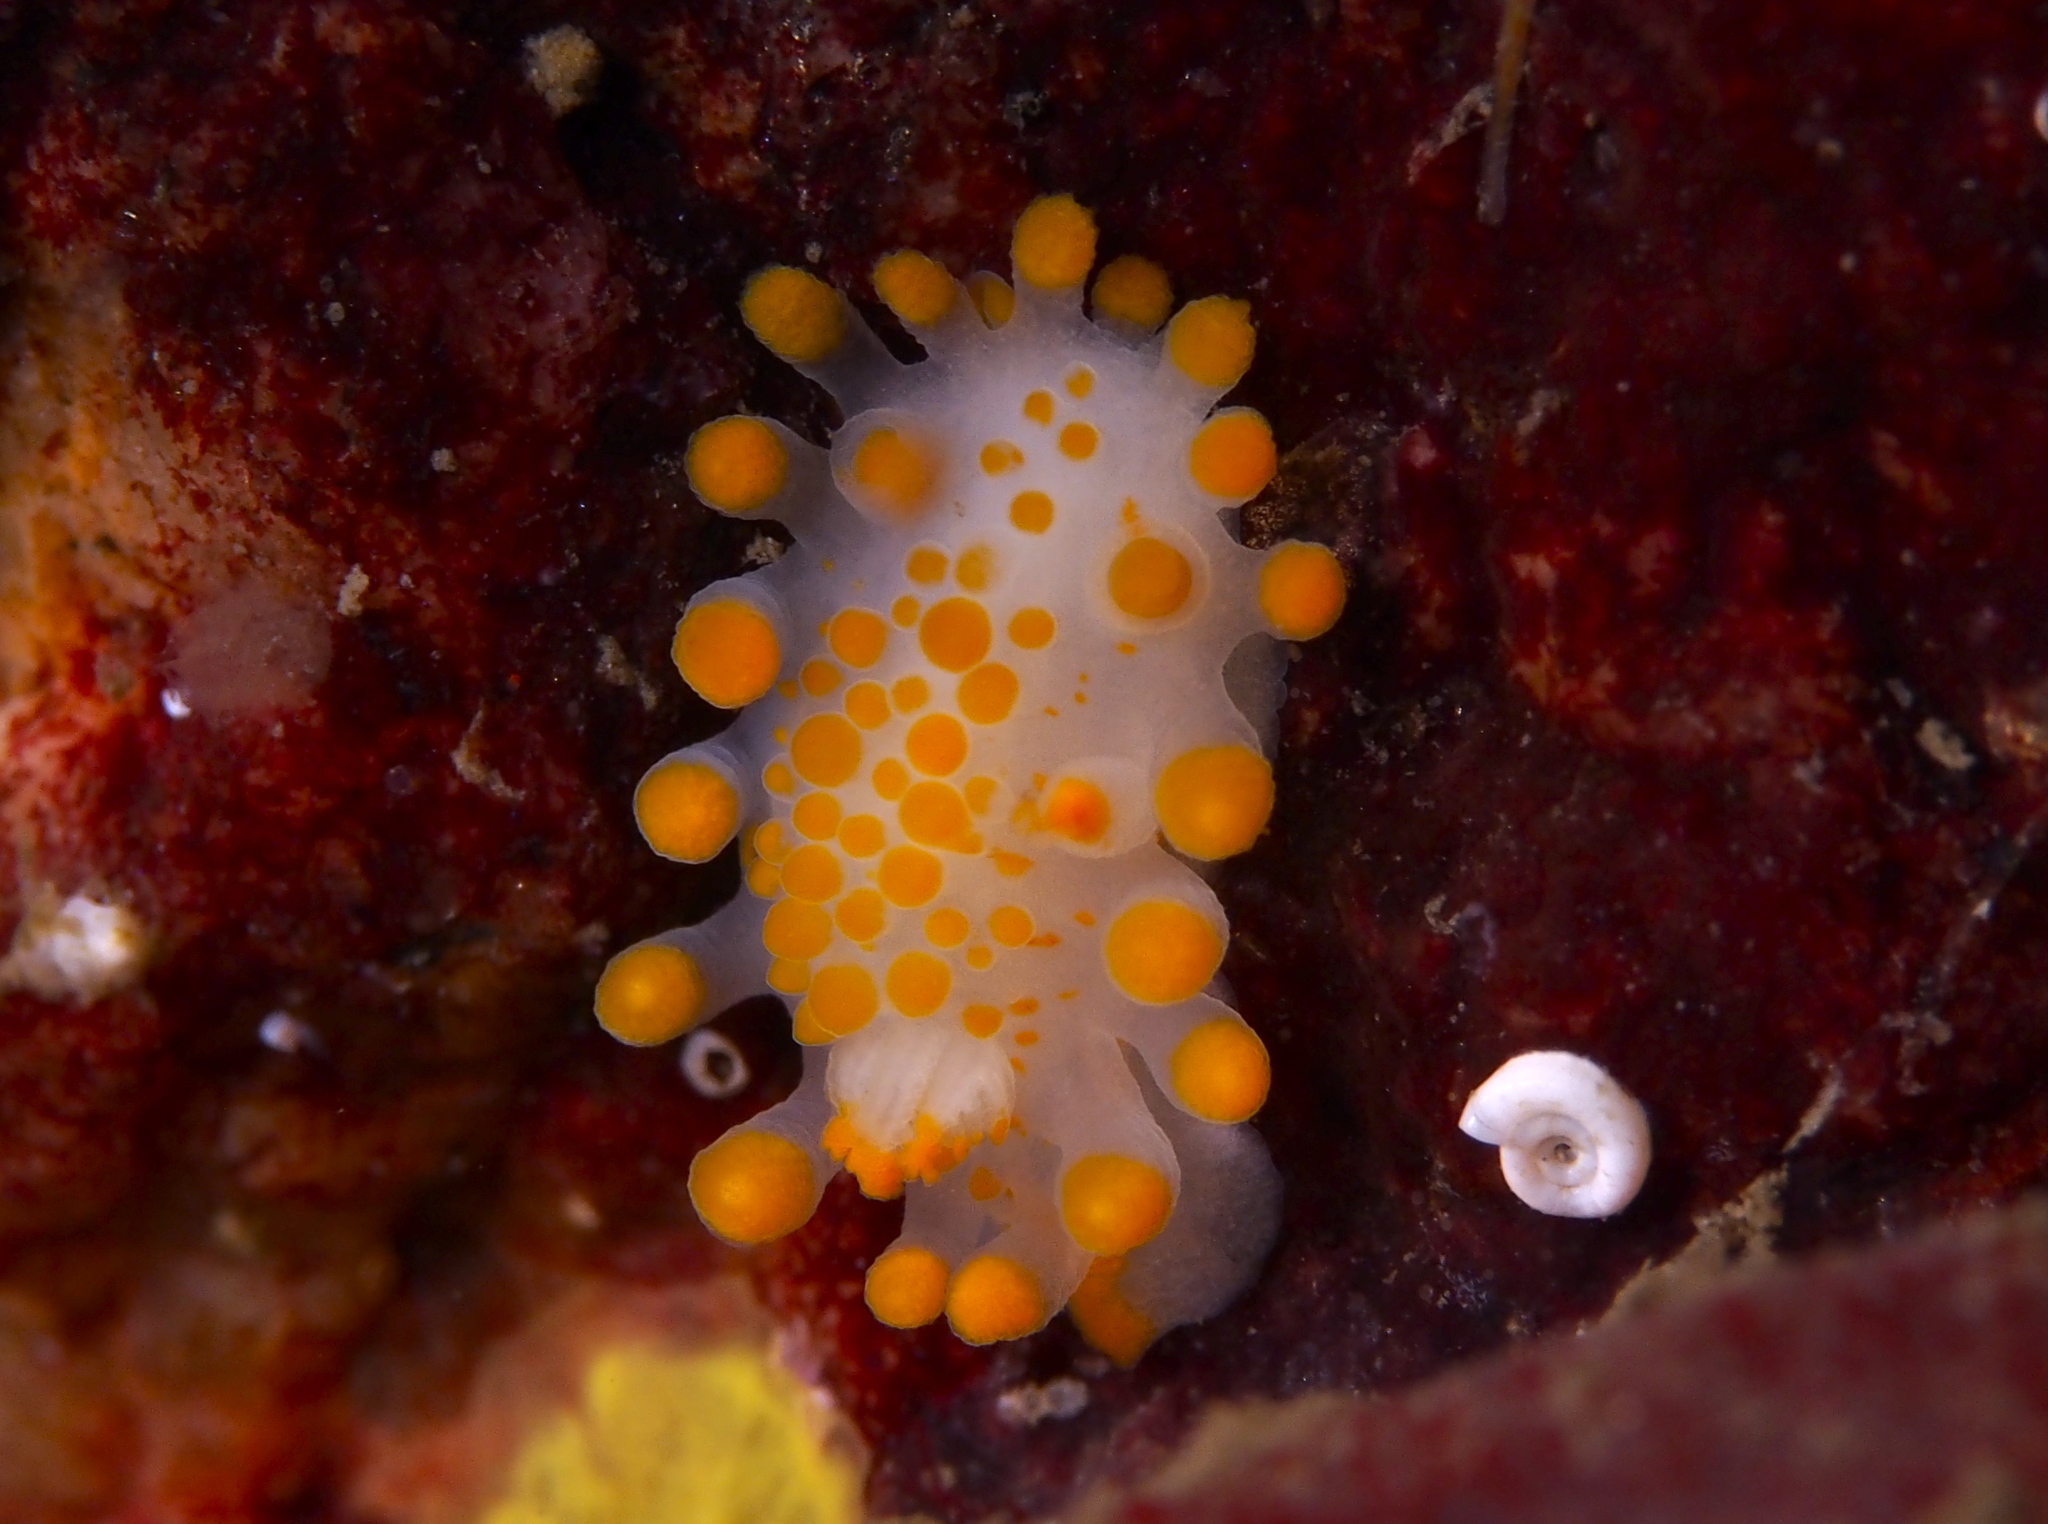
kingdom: Animalia
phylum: Mollusca
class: Gastropoda
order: Nudibranchia
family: Polyceridae
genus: Limacia
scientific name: Limacia clavigera
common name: Orange-clubbed sea slug
